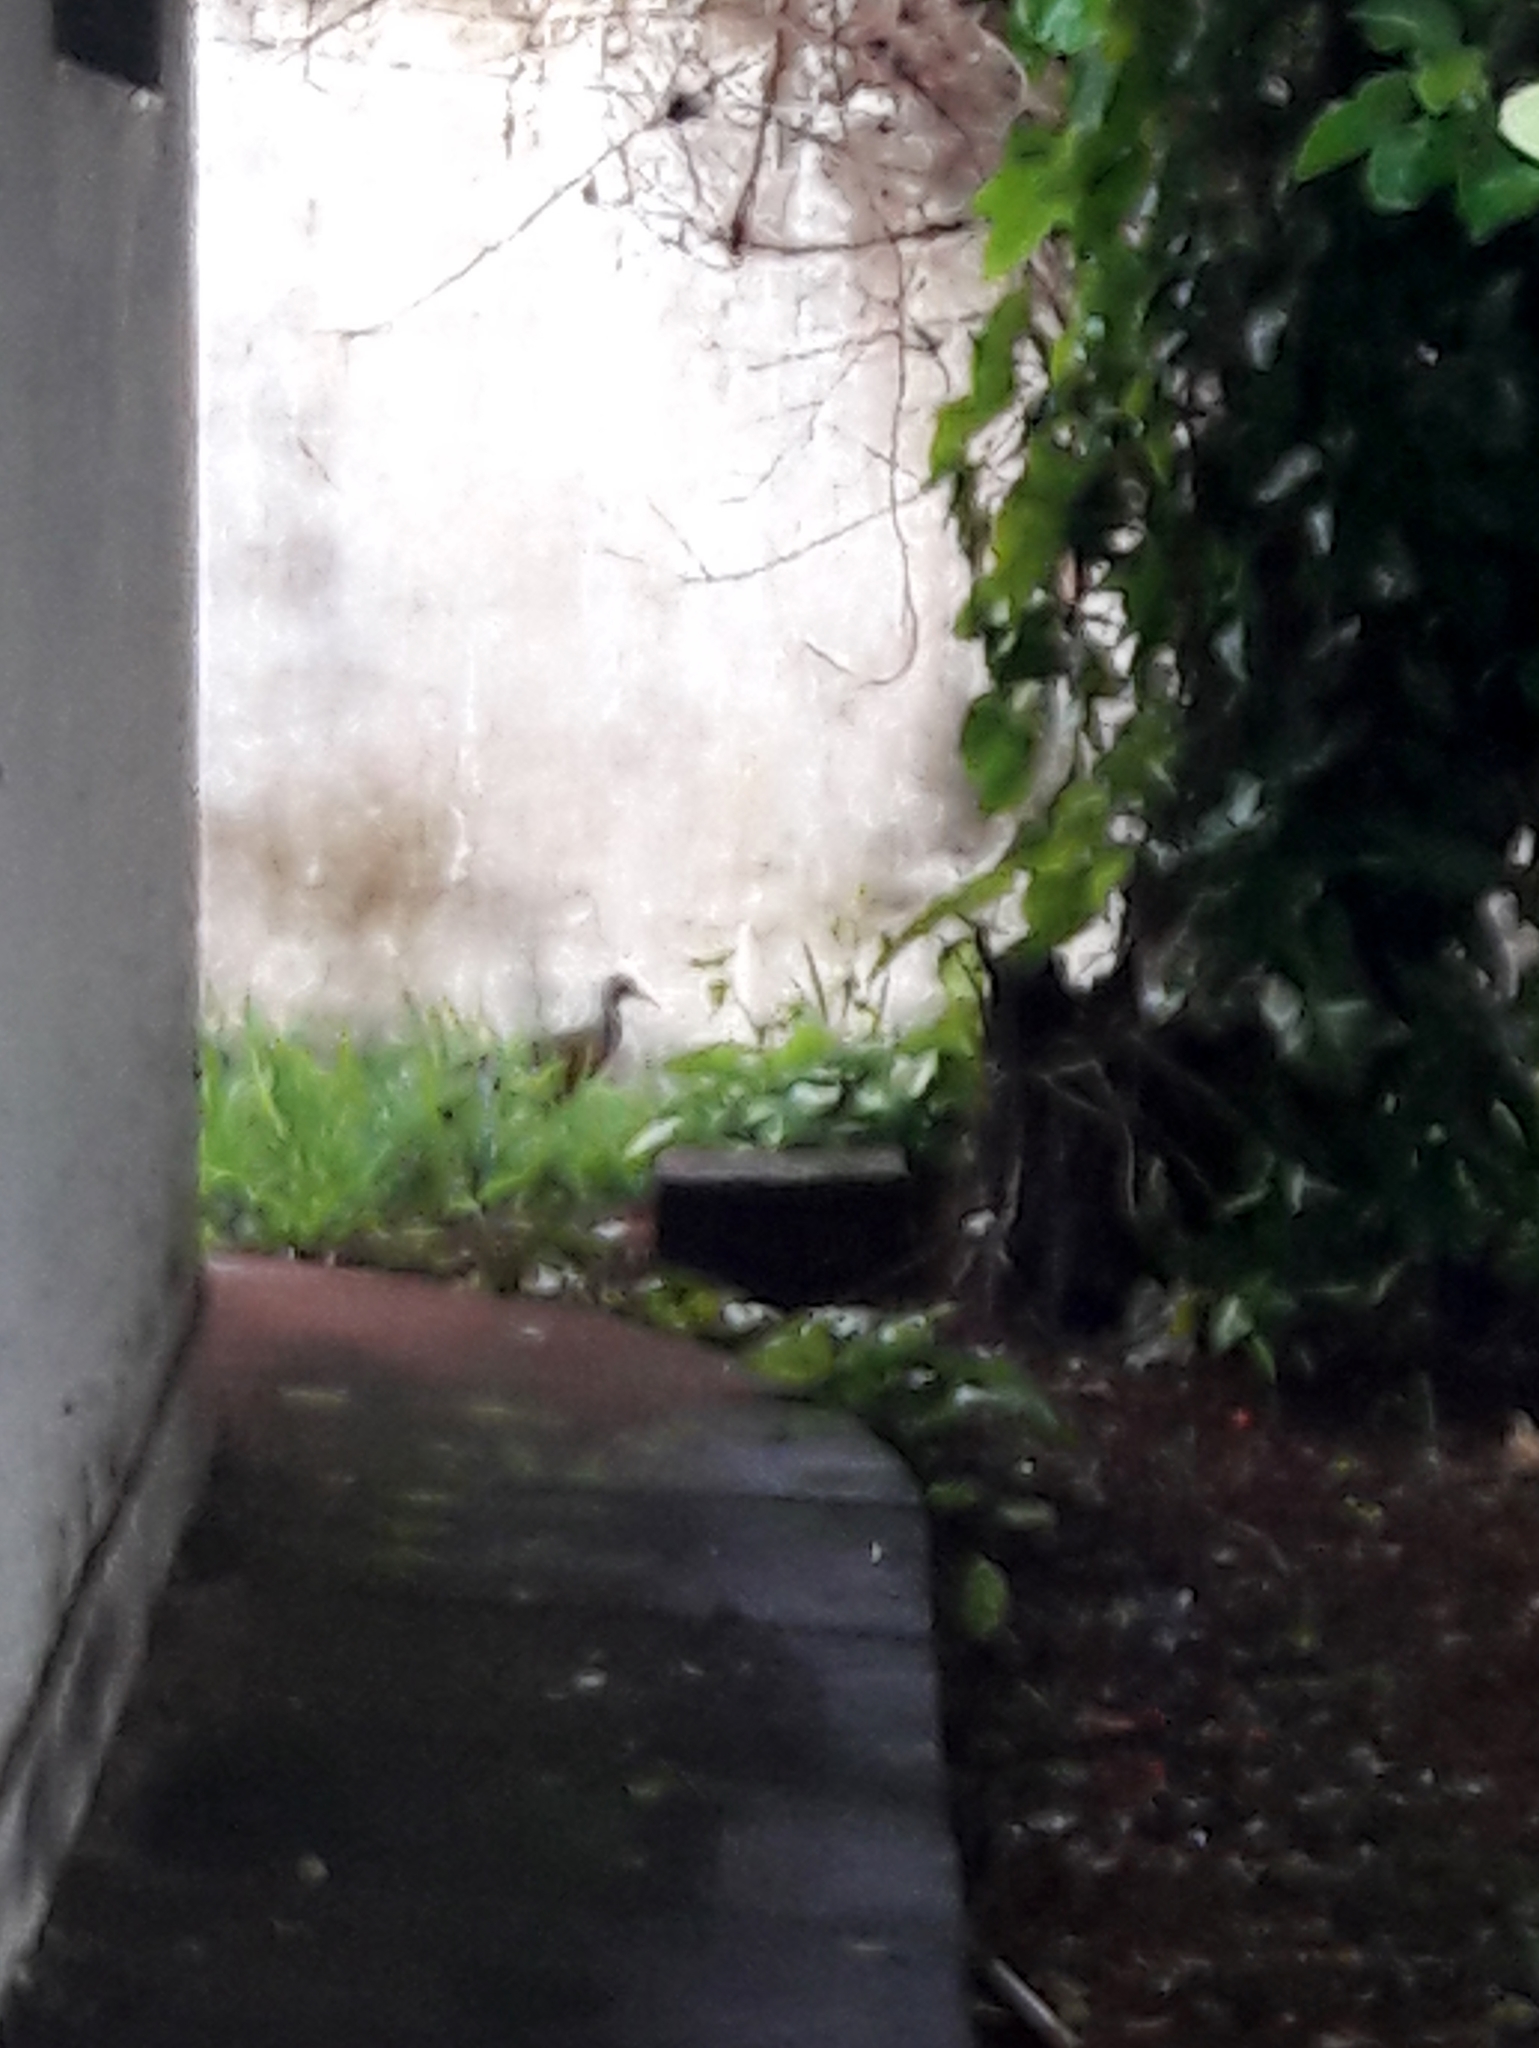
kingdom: Animalia
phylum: Chordata
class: Aves
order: Gruiformes
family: Rallidae
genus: Aramides
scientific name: Aramides cajanea
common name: Gray-necked wood-rail
